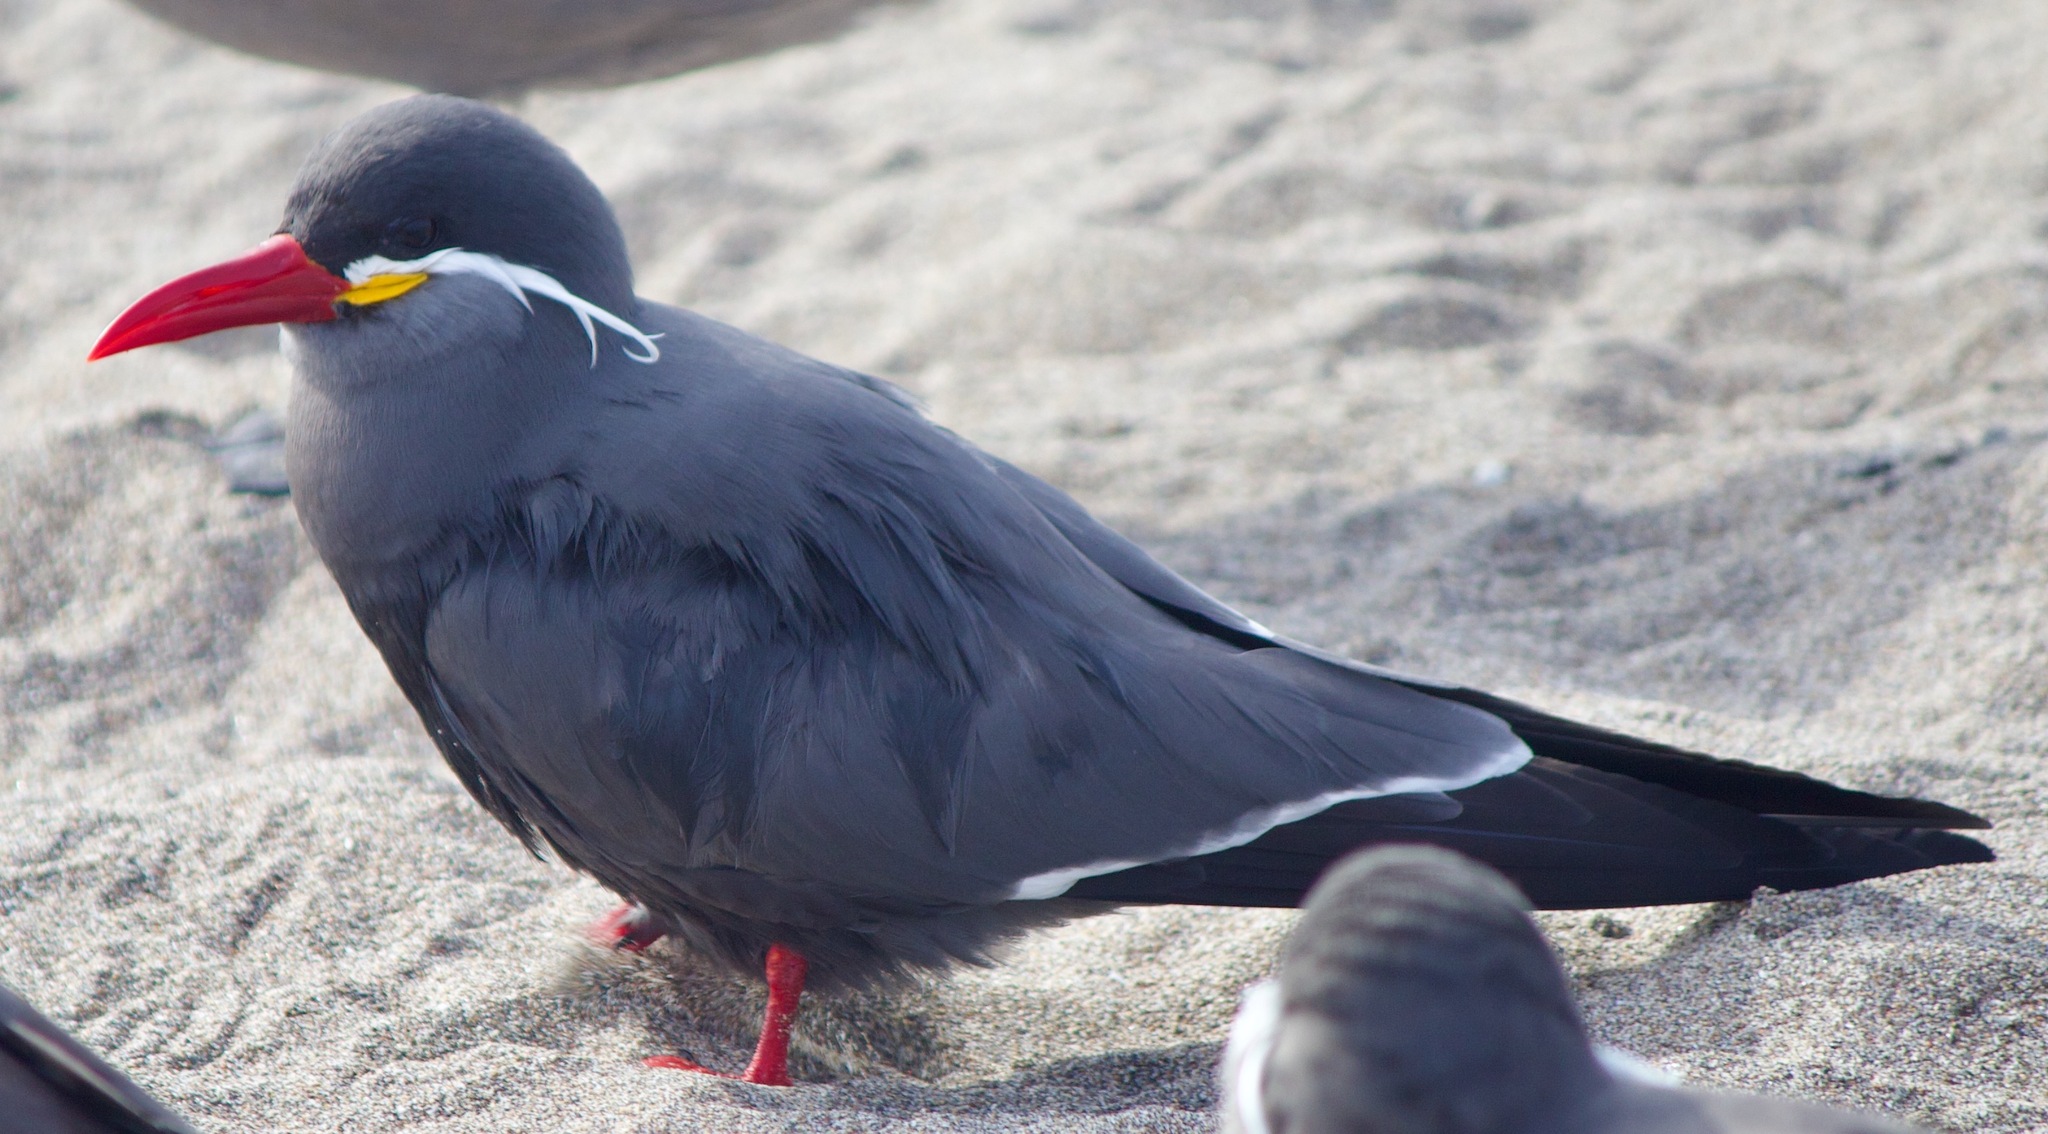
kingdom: Animalia
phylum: Chordata
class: Aves
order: Charadriiformes
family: Laridae
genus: Larosterna
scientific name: Larosterna inca
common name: Inca tern
